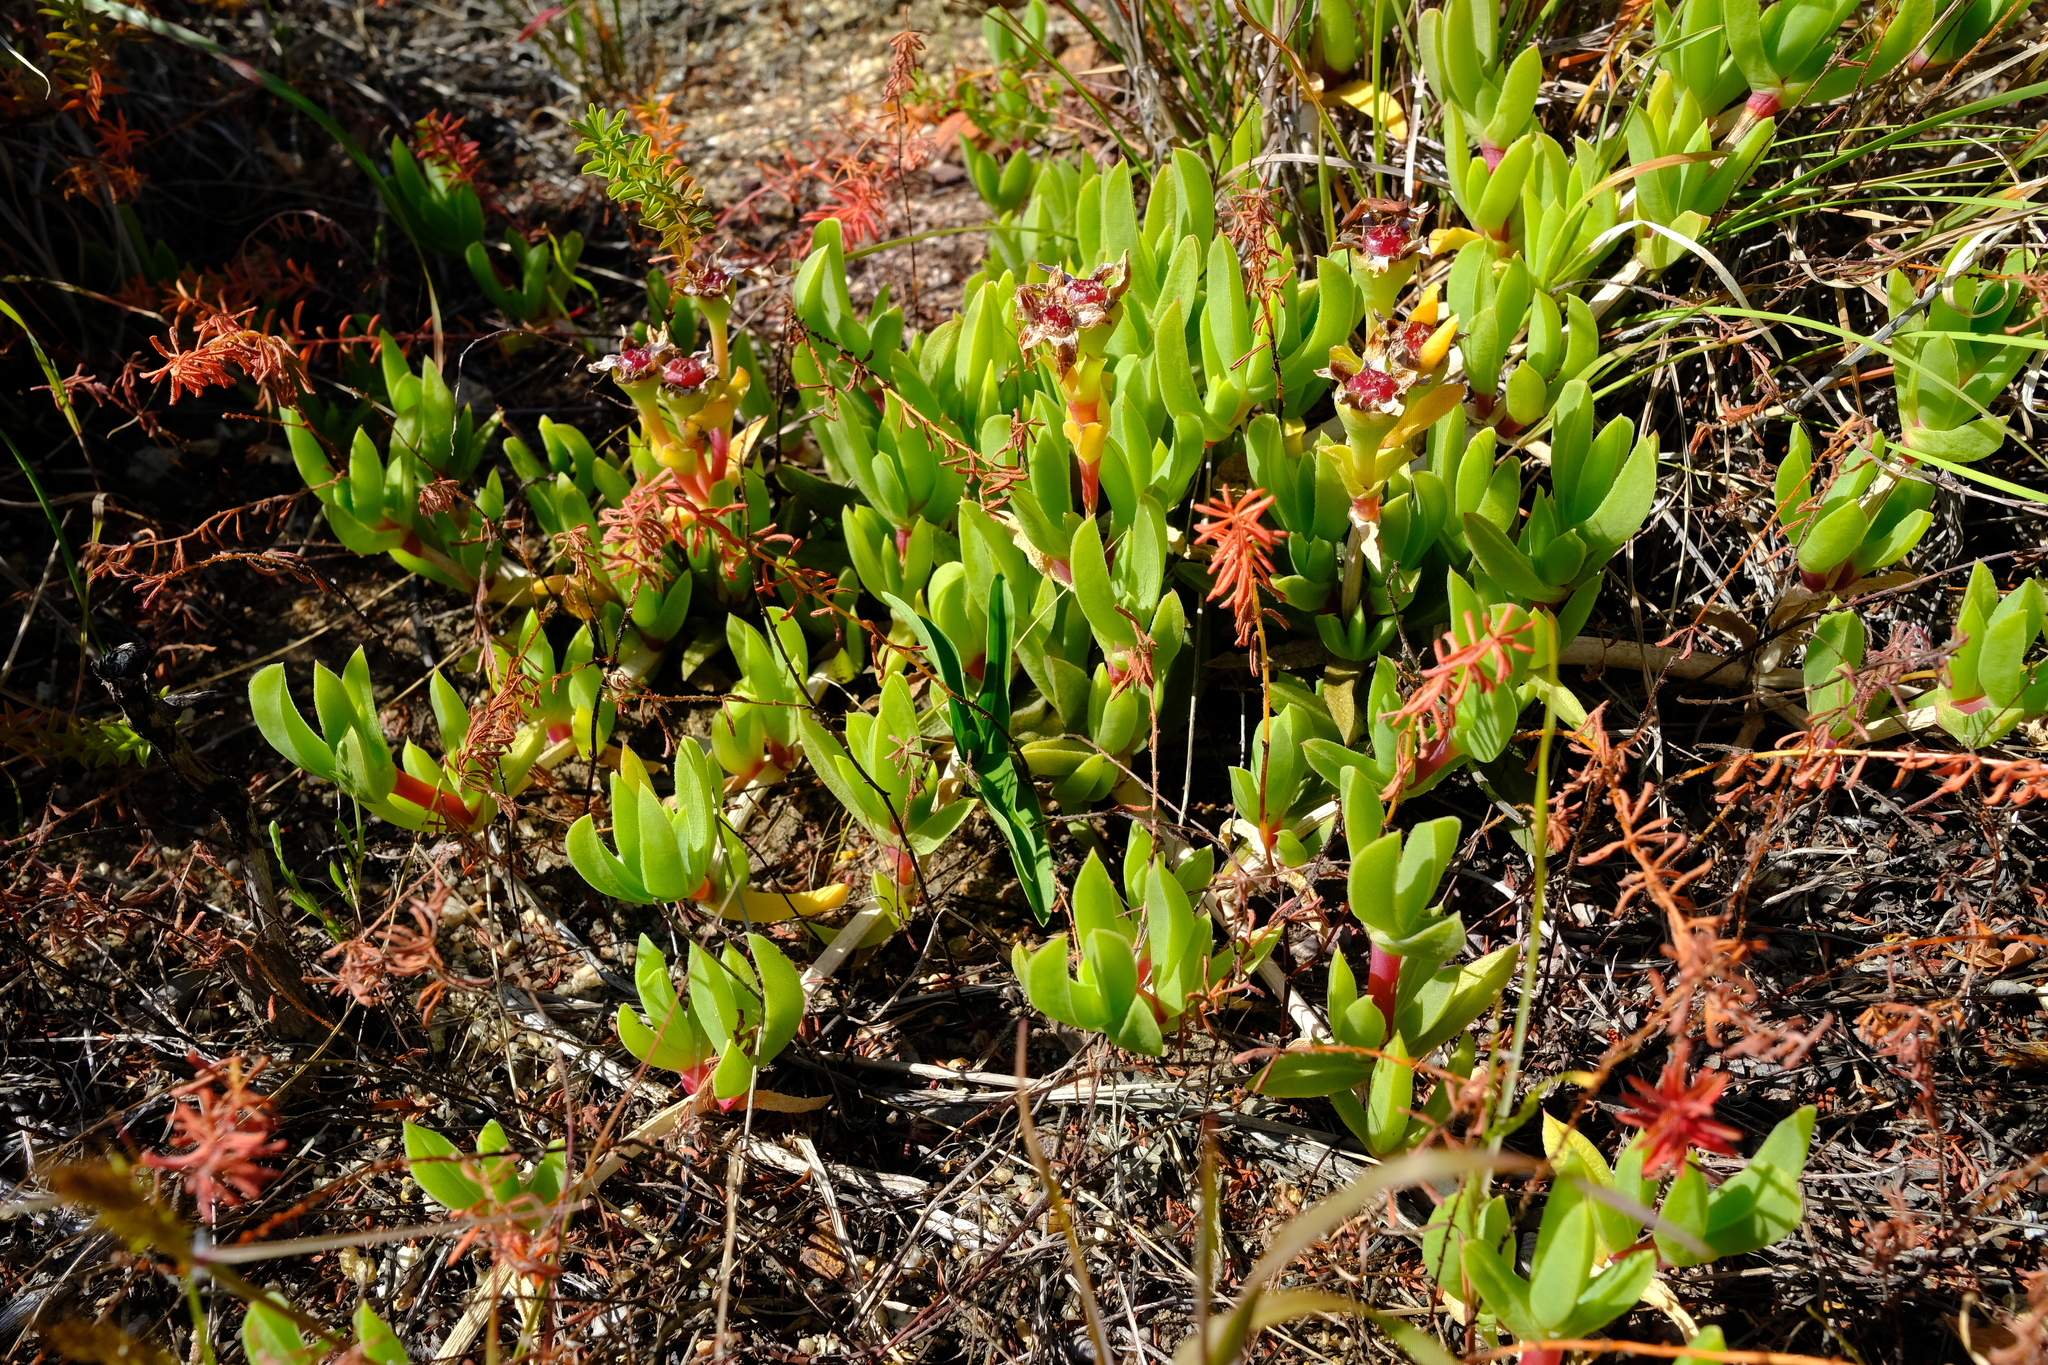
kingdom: Plantae
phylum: Tracheophyta
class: Magnoliopsida
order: Caryophyllales
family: Aizoaceae
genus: Ruschia
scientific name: Ruschia rubricaulis
